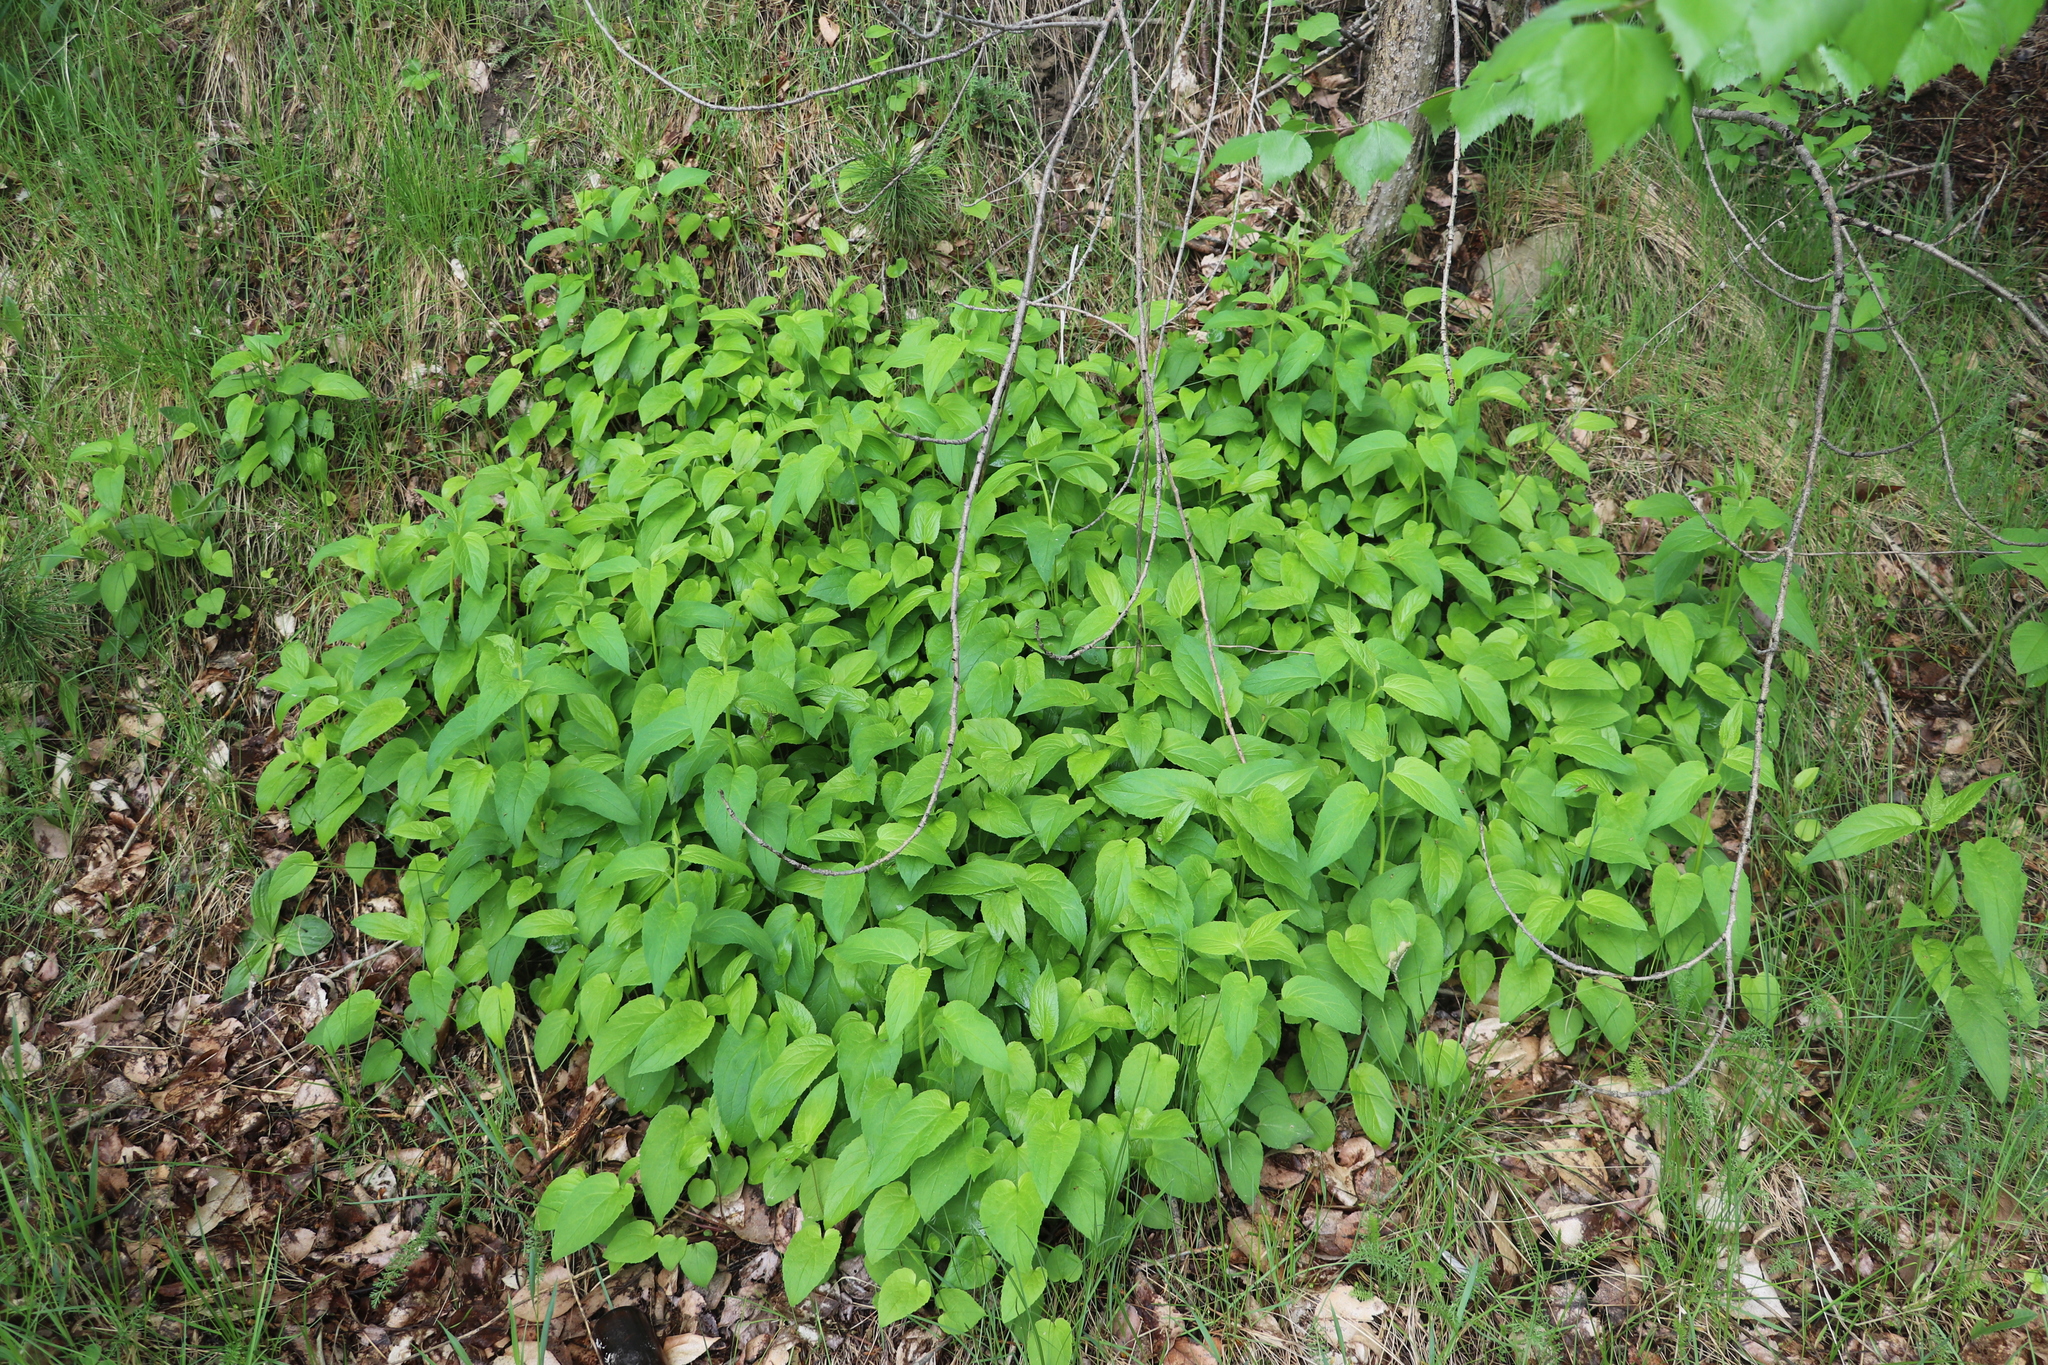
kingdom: Plantae
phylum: Tracheophyta
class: Magnoliopsida
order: Asterales
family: Campanulaceae
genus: Campanula
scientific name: Campanula rapunculoides
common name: Creeping bellflower
